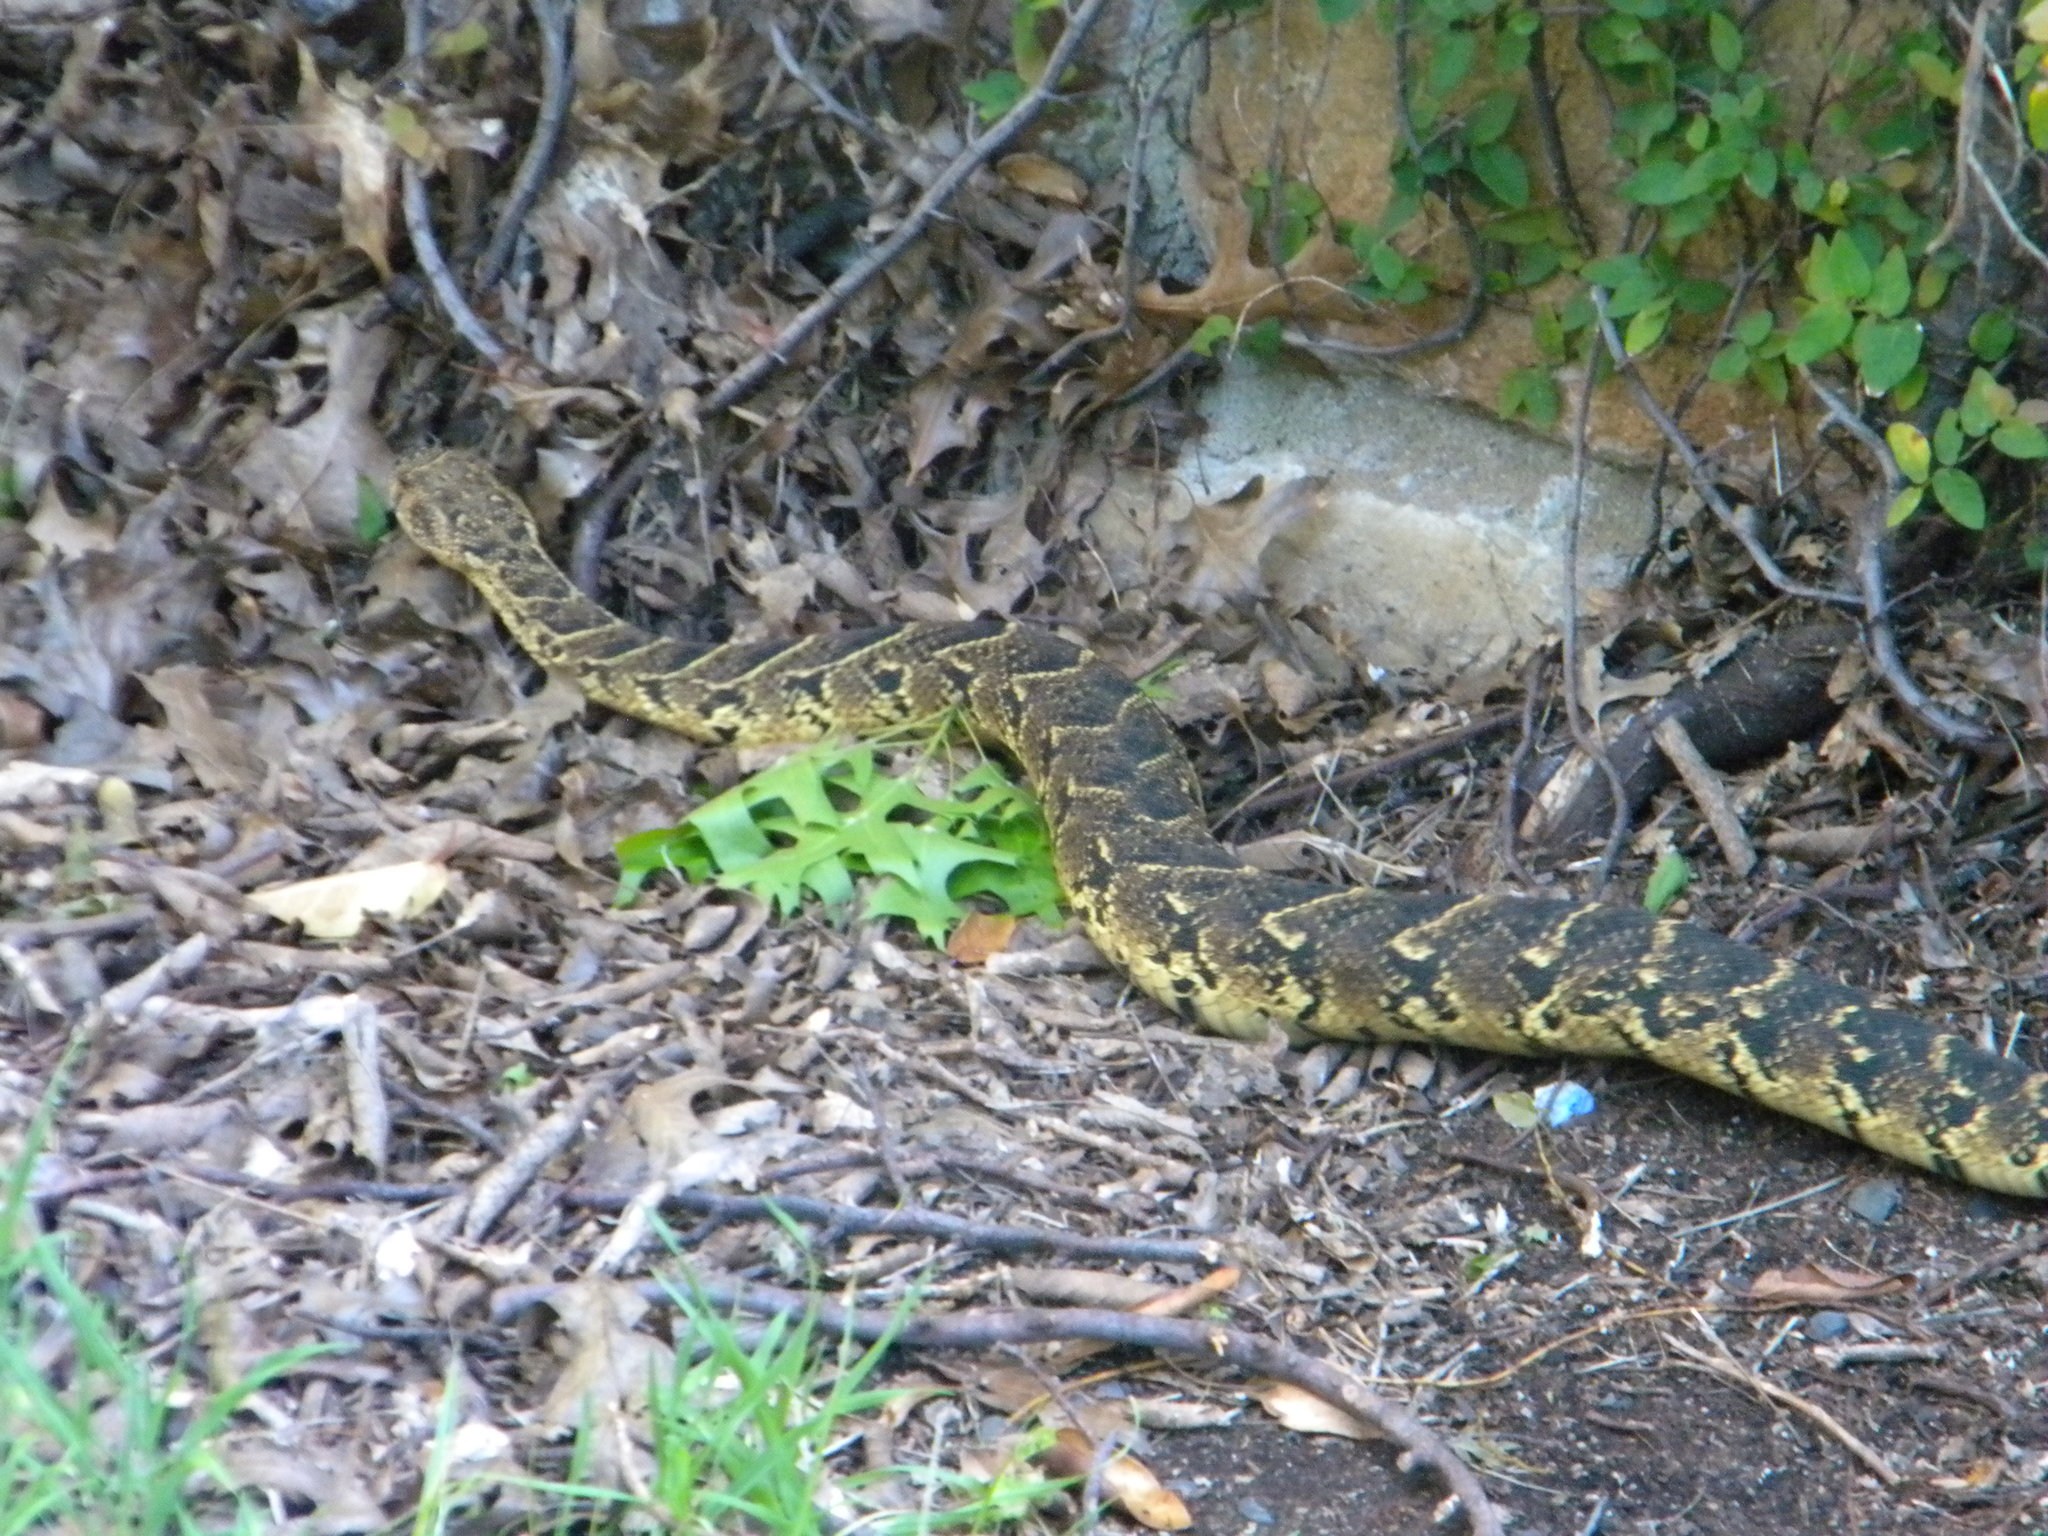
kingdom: Animalia
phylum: Chordata
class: Squamata
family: Viperidae
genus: Bitis
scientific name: Bitis arietans
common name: Puff adder
